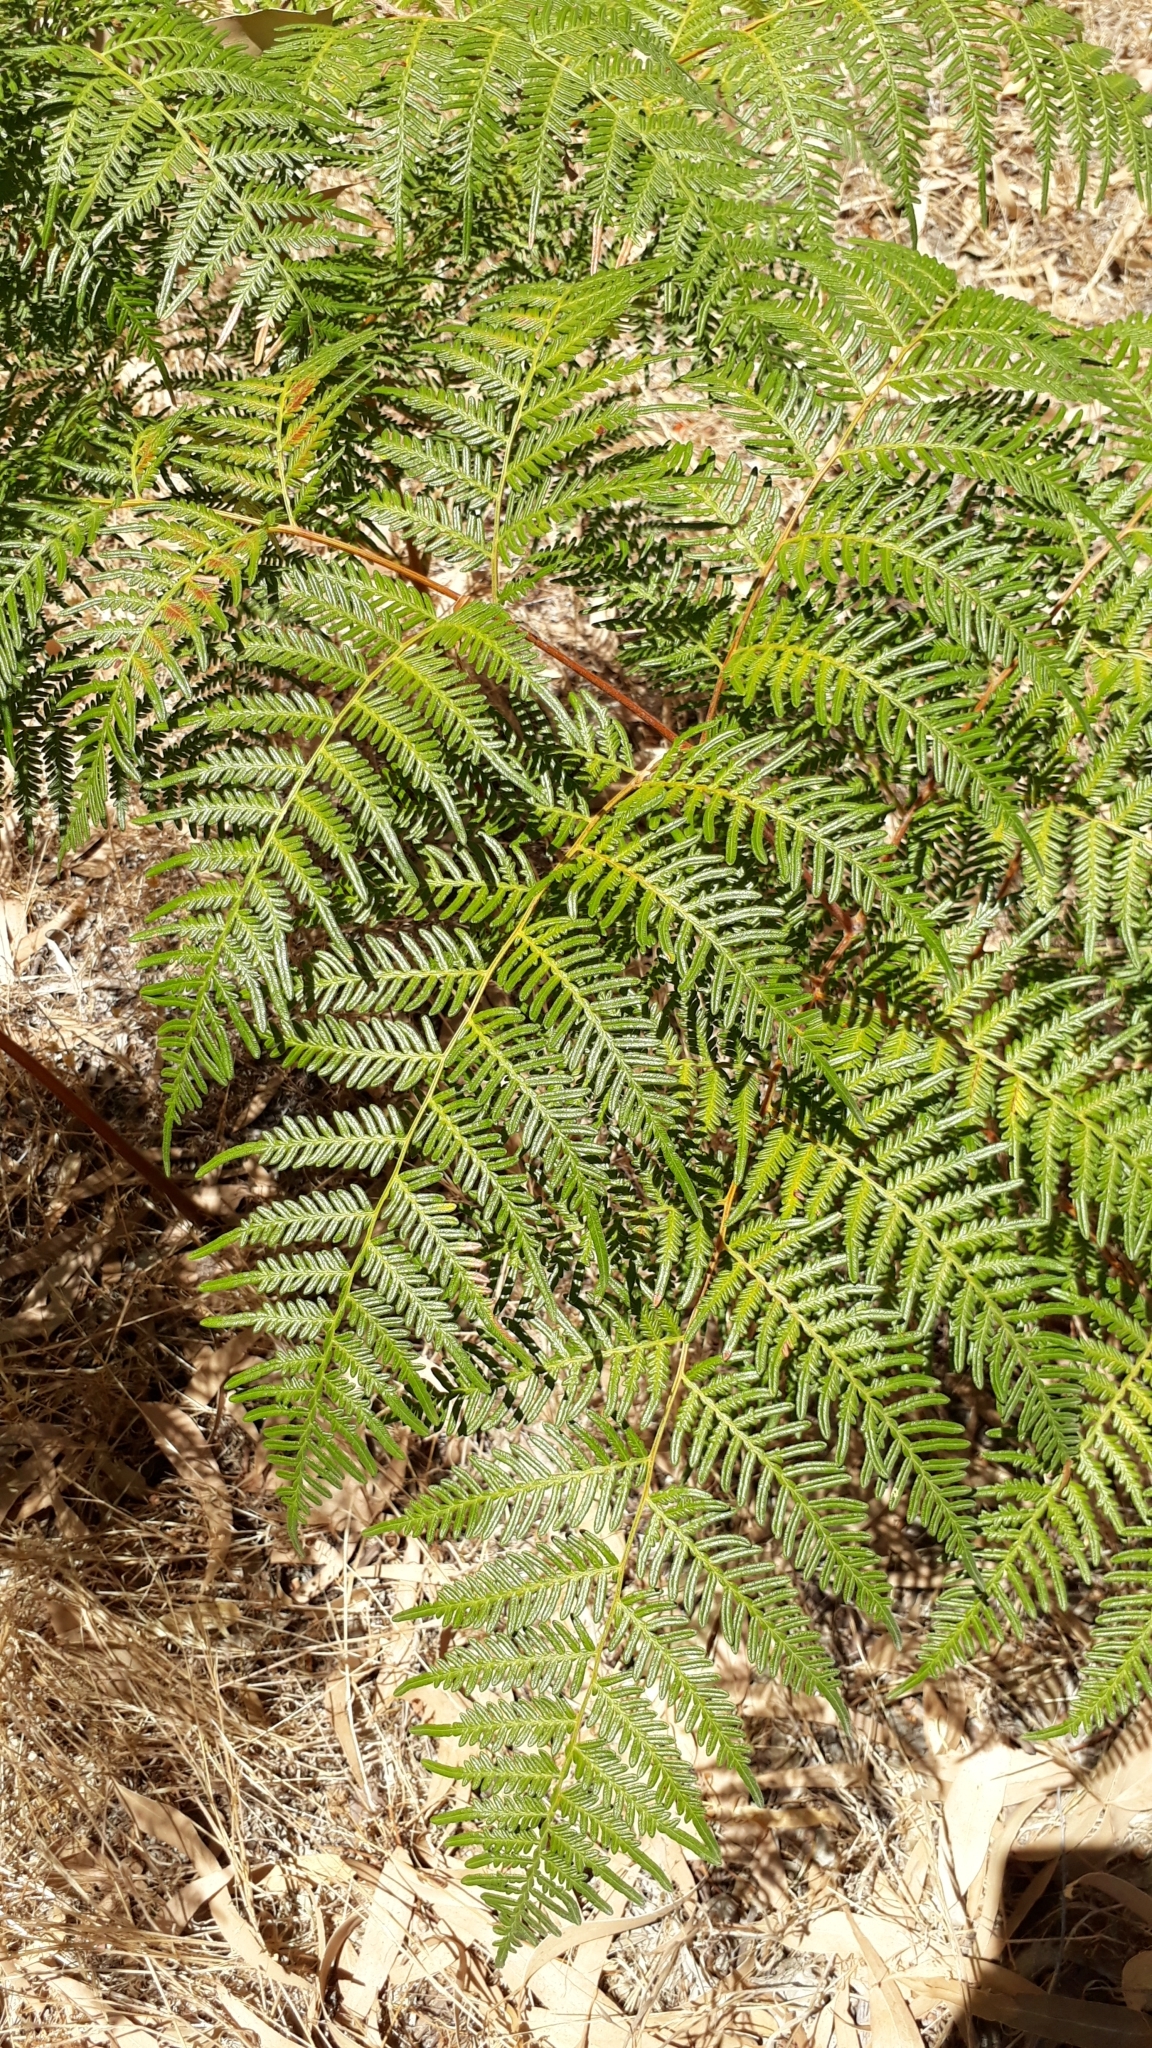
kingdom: Plantae
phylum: Tracheophyta
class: Polypodiopsida
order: Polypodiales
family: Dennstaedtiaceae
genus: Pteridium
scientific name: Pteridium esculentum
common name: Bracken fern
